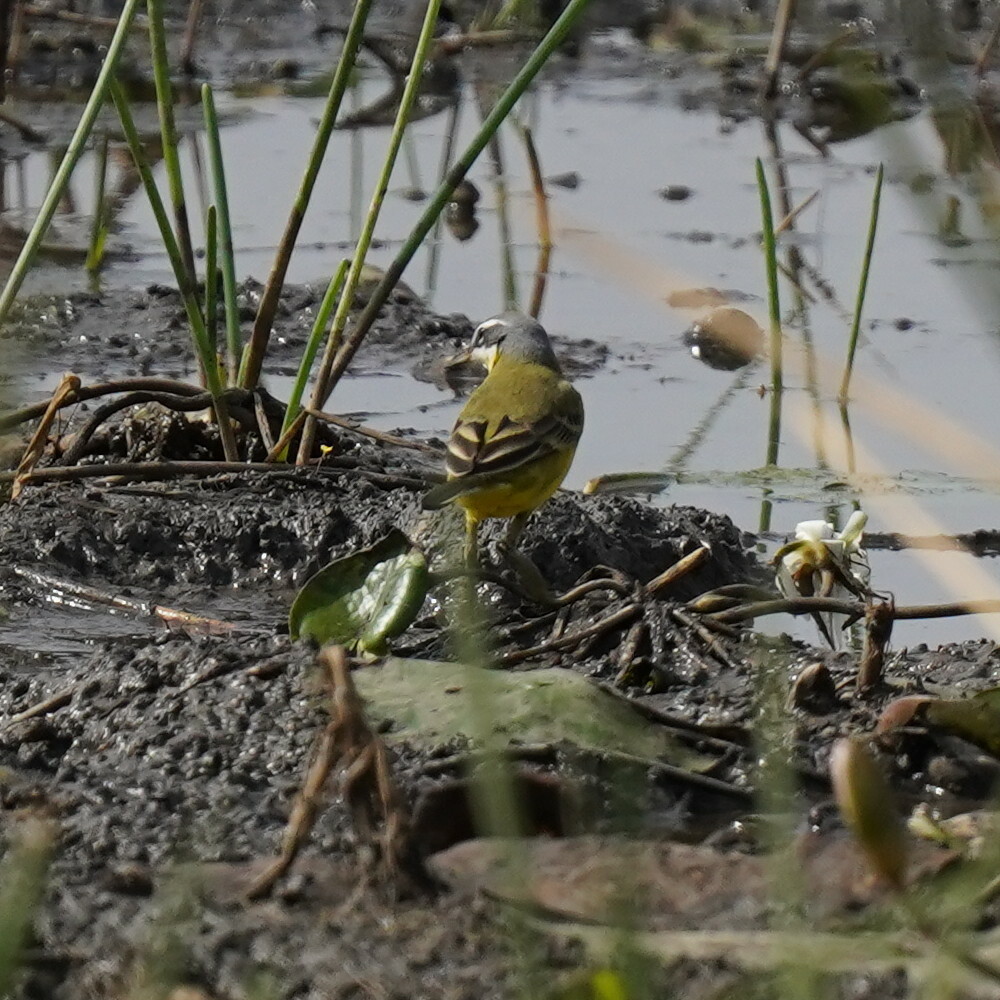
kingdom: Animalia
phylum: Chordata
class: Aves
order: Passeriformes
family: Motacillidae
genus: Motacilla
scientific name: Motacilla flava
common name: Western yellow wagtail
